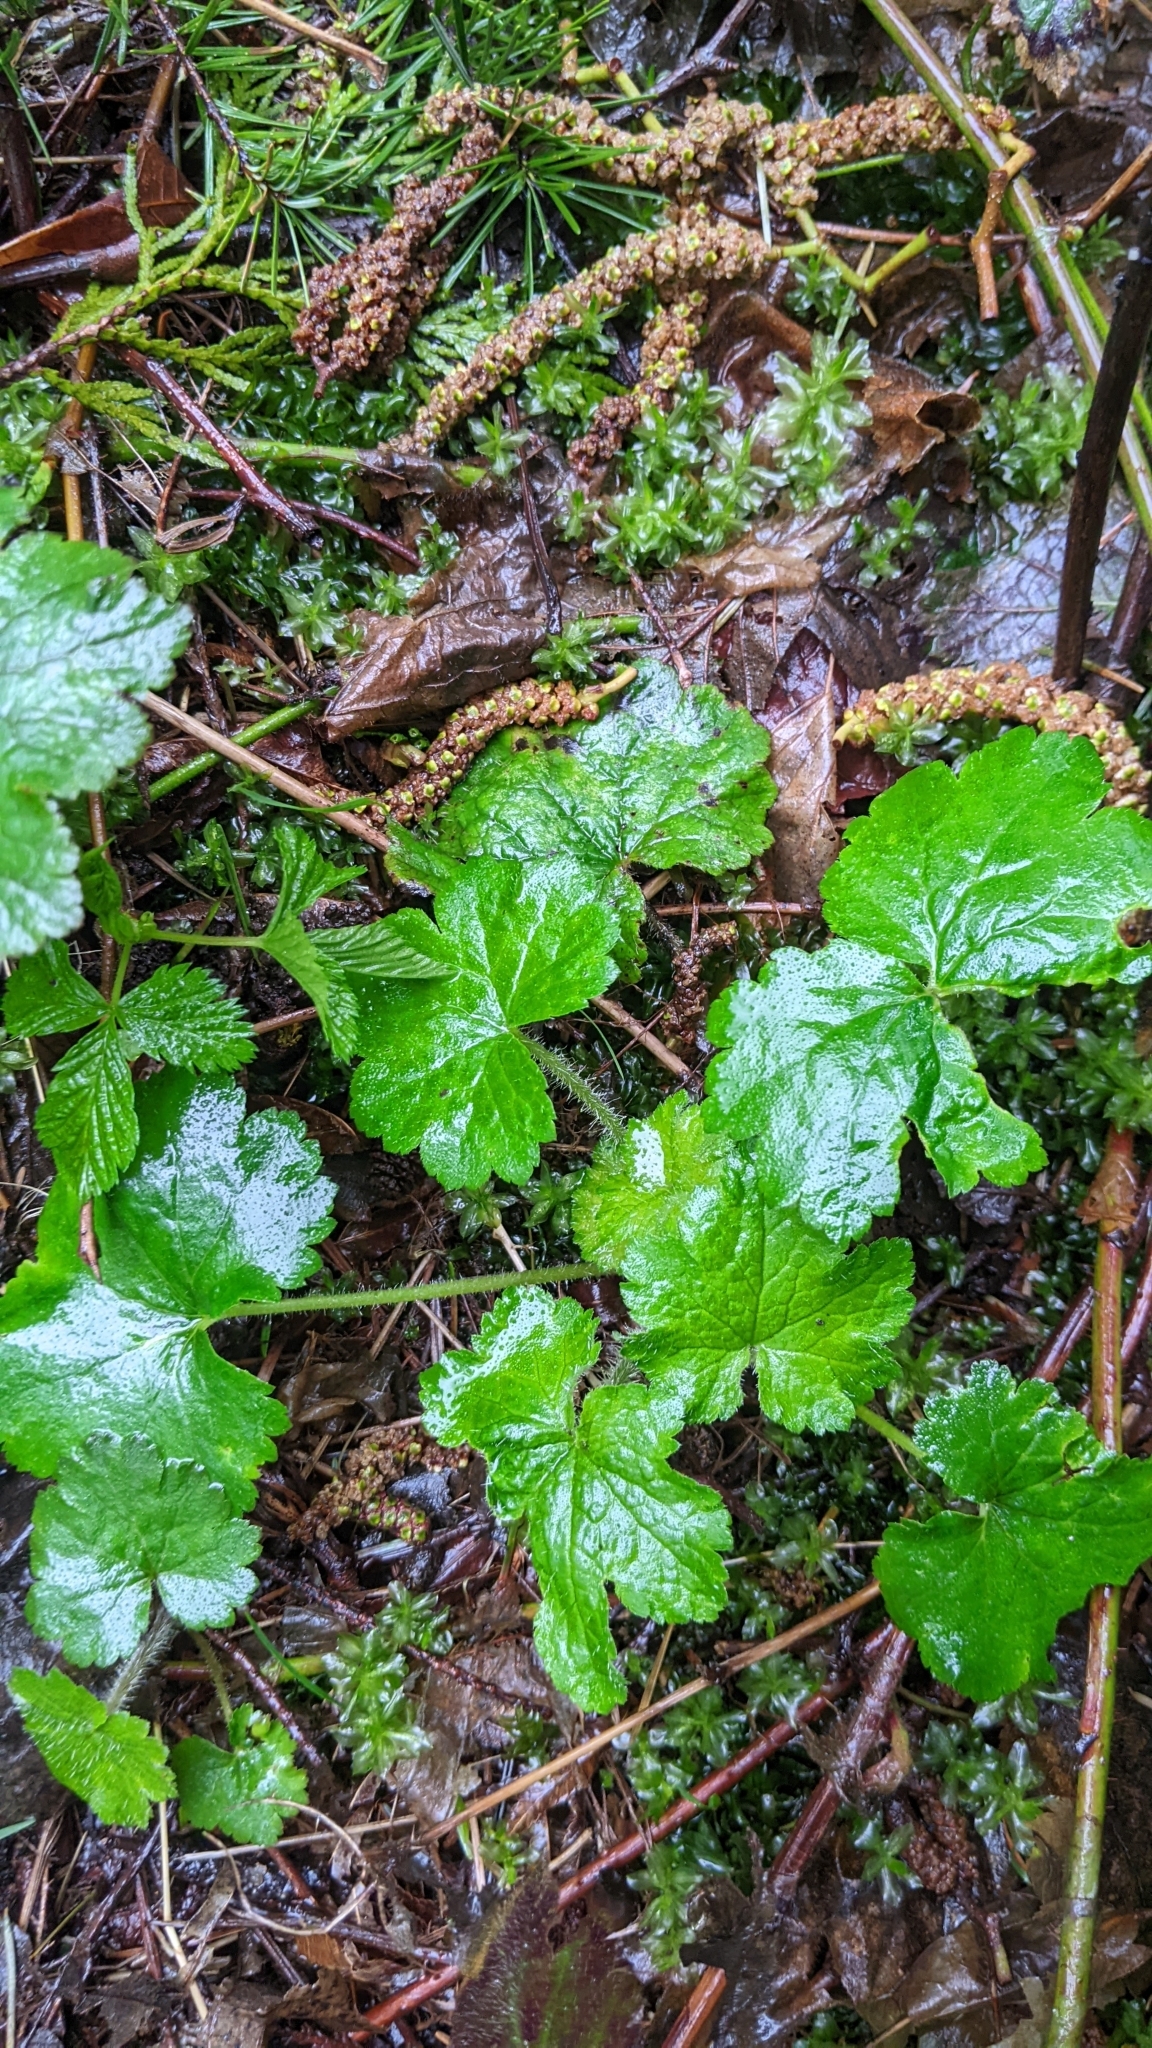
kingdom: Plantae
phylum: Tracheophyta
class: Magnoliopsida
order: Saxifragales
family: Saxifragaceae
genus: Tellima
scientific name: Tellima grandiflora
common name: Fringecups
